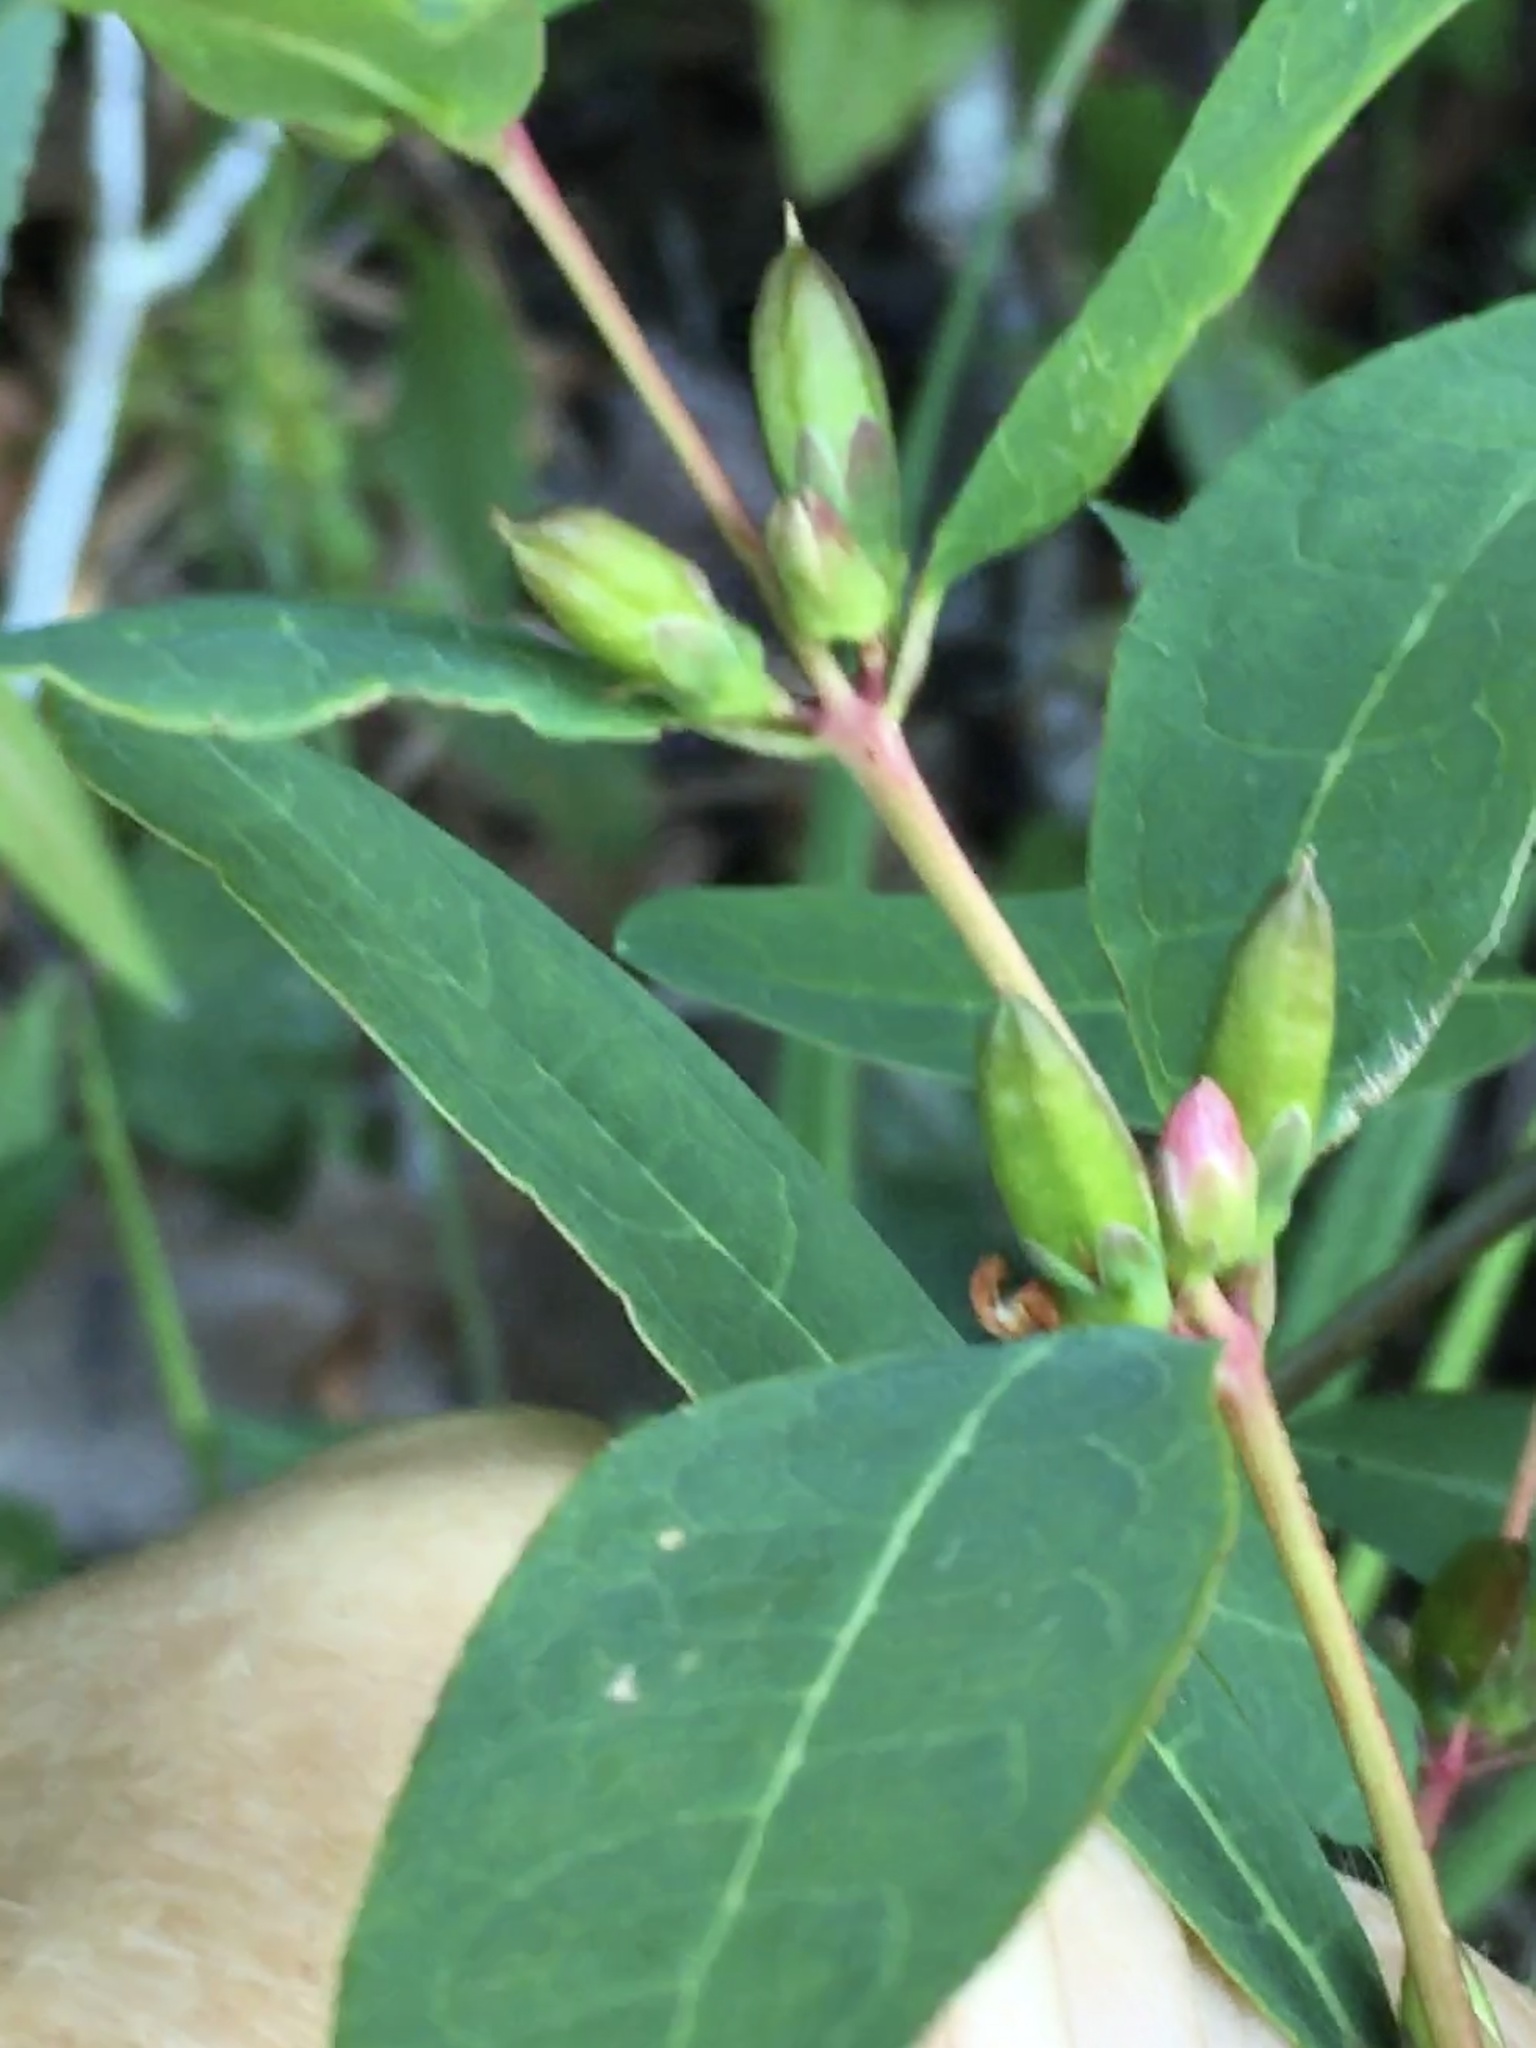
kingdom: Plantae
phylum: Tracheophyta
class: Magnoliopsida
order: Malpighiales
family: Hypericaceae
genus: Triadenum
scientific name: Triadenum walteri
